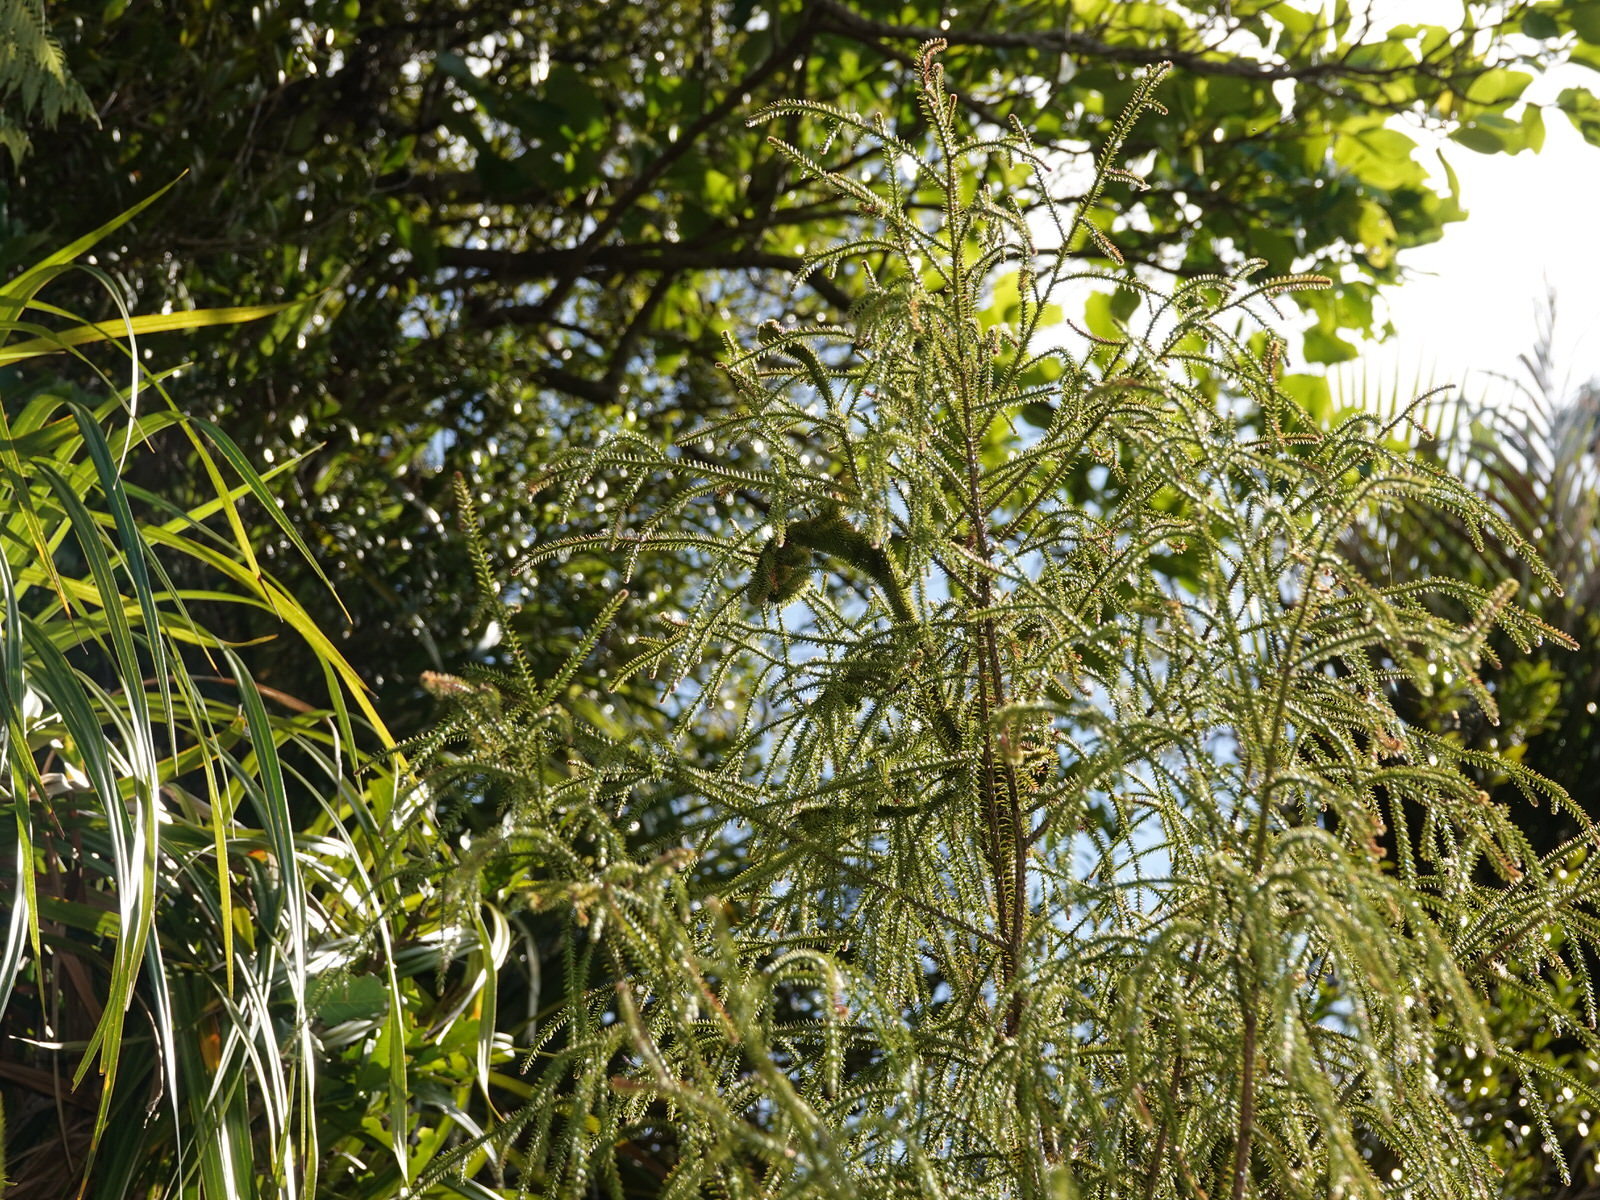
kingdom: Plantae
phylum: Tracheophyta
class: Pinopsida
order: Pinales
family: Podocarpaceae
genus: Dacrydium
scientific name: Dacrydium cupressinum
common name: Red pine
